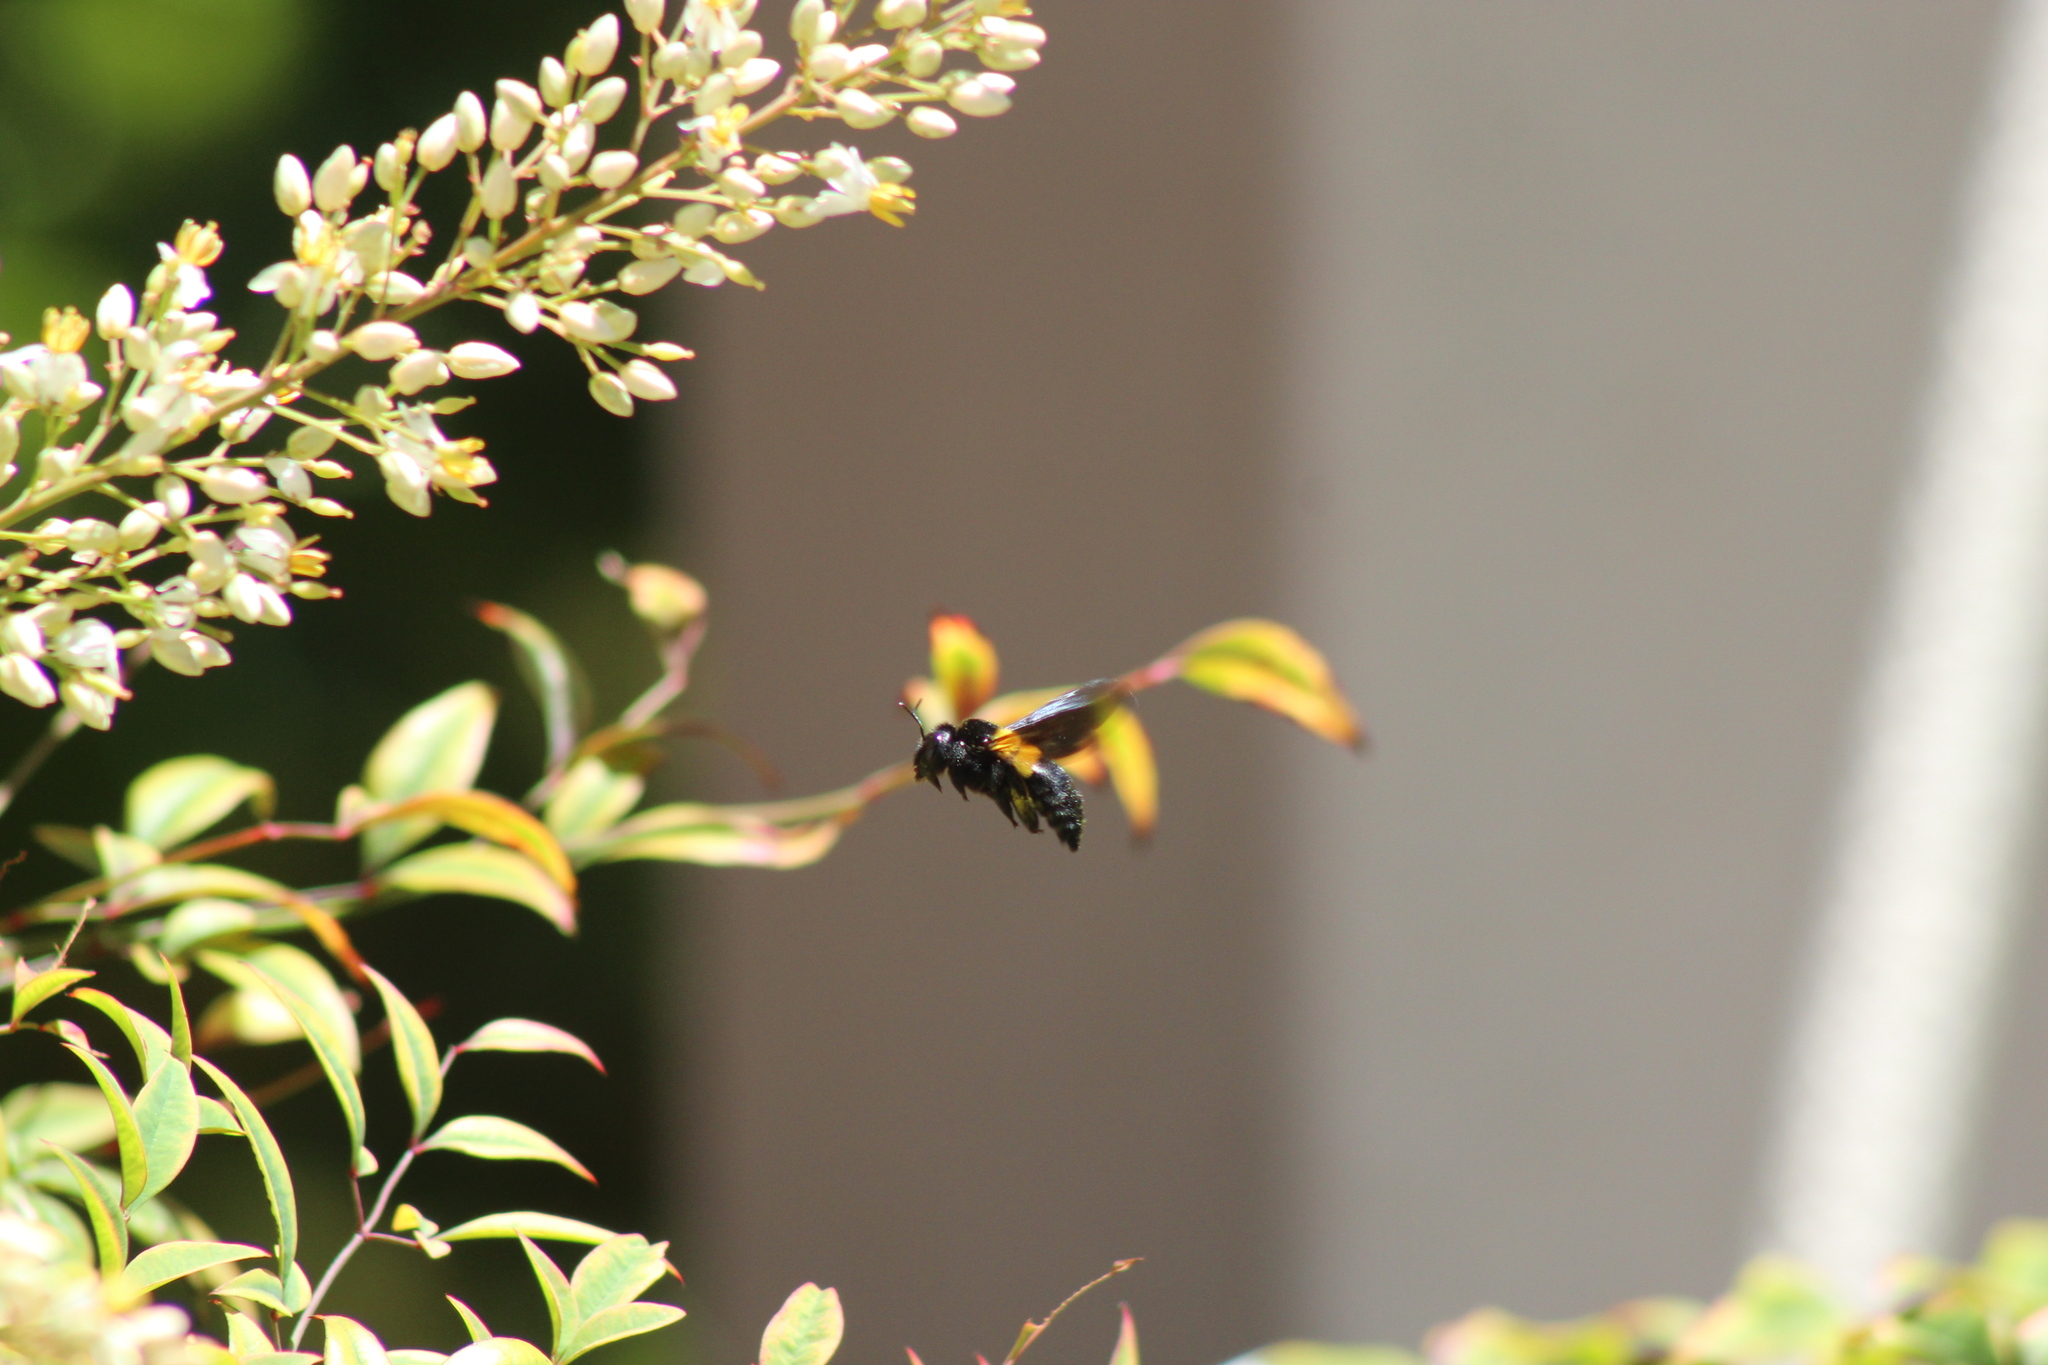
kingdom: Animalia
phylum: Arthropoda
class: Insecta
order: Hymenoptera
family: Apidae
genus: Xylocopa
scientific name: Xylocopa caffra
